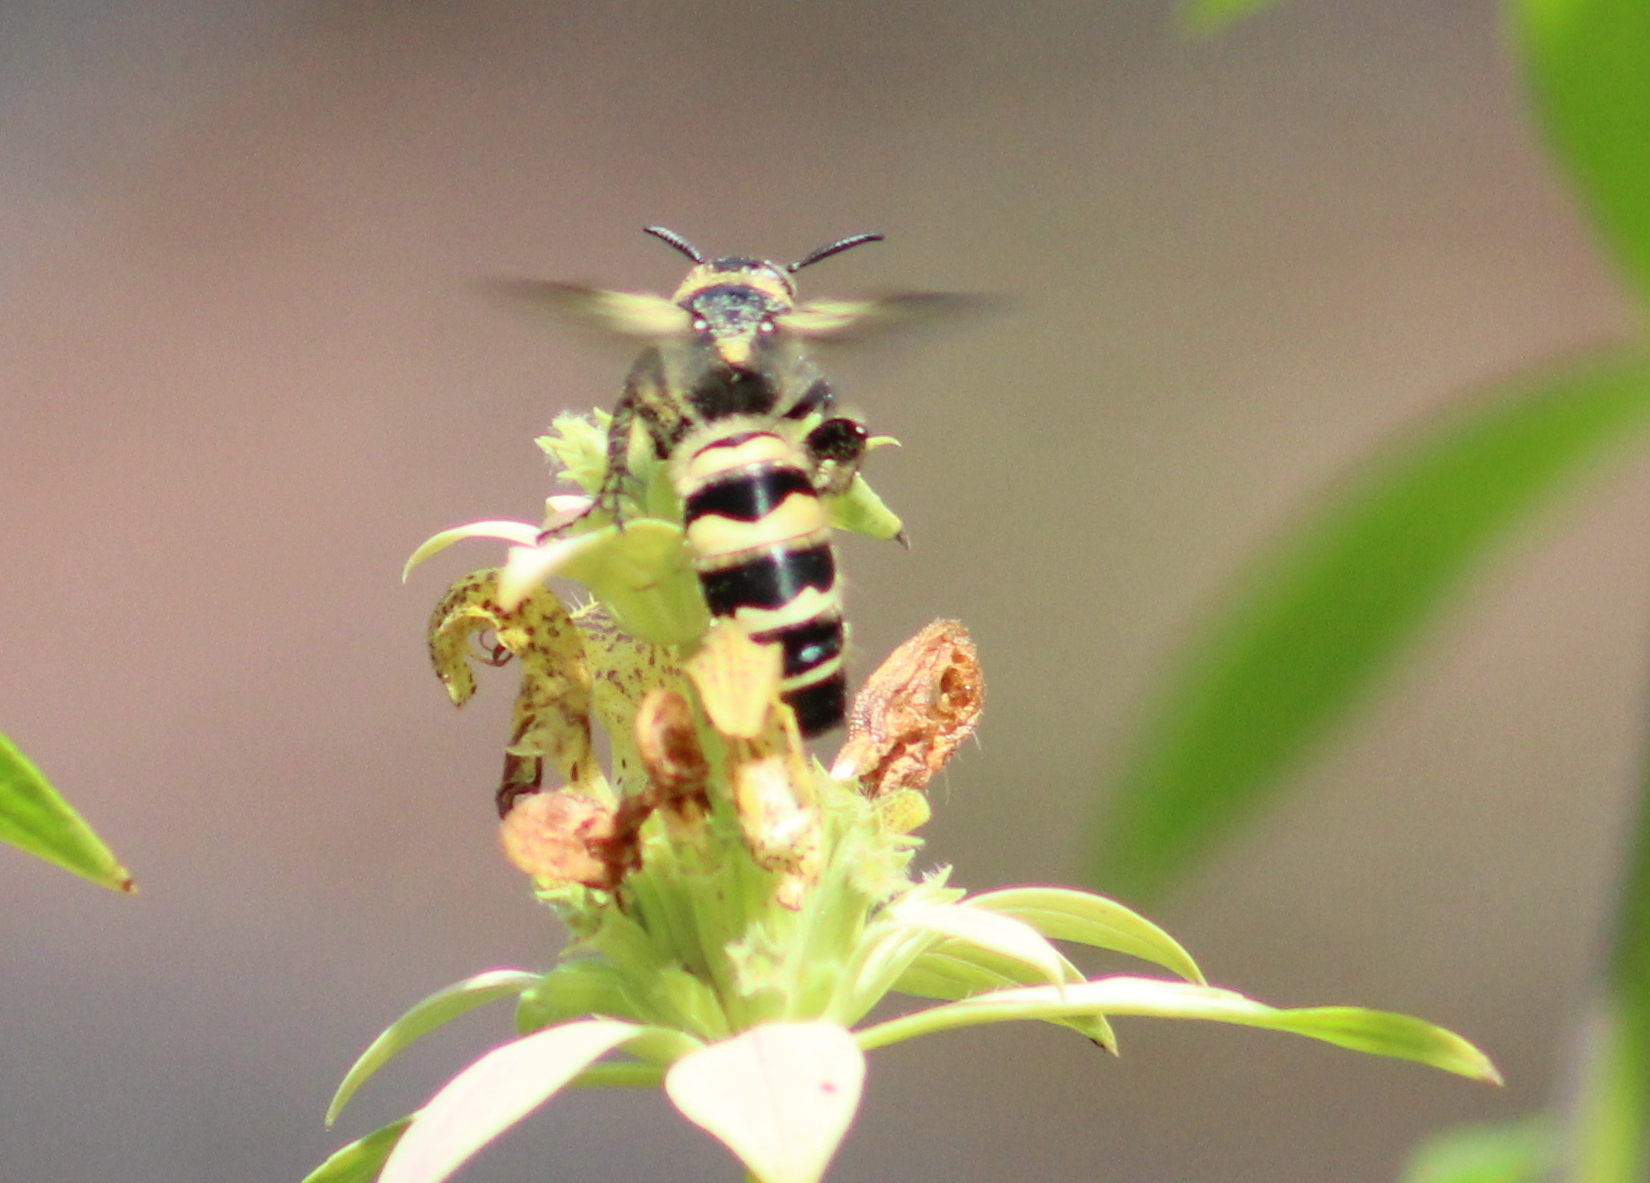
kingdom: Animalia
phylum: Arthropoda
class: Insecta
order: Hymenoptera
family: Scoliidae
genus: Dielis
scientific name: Dielis
